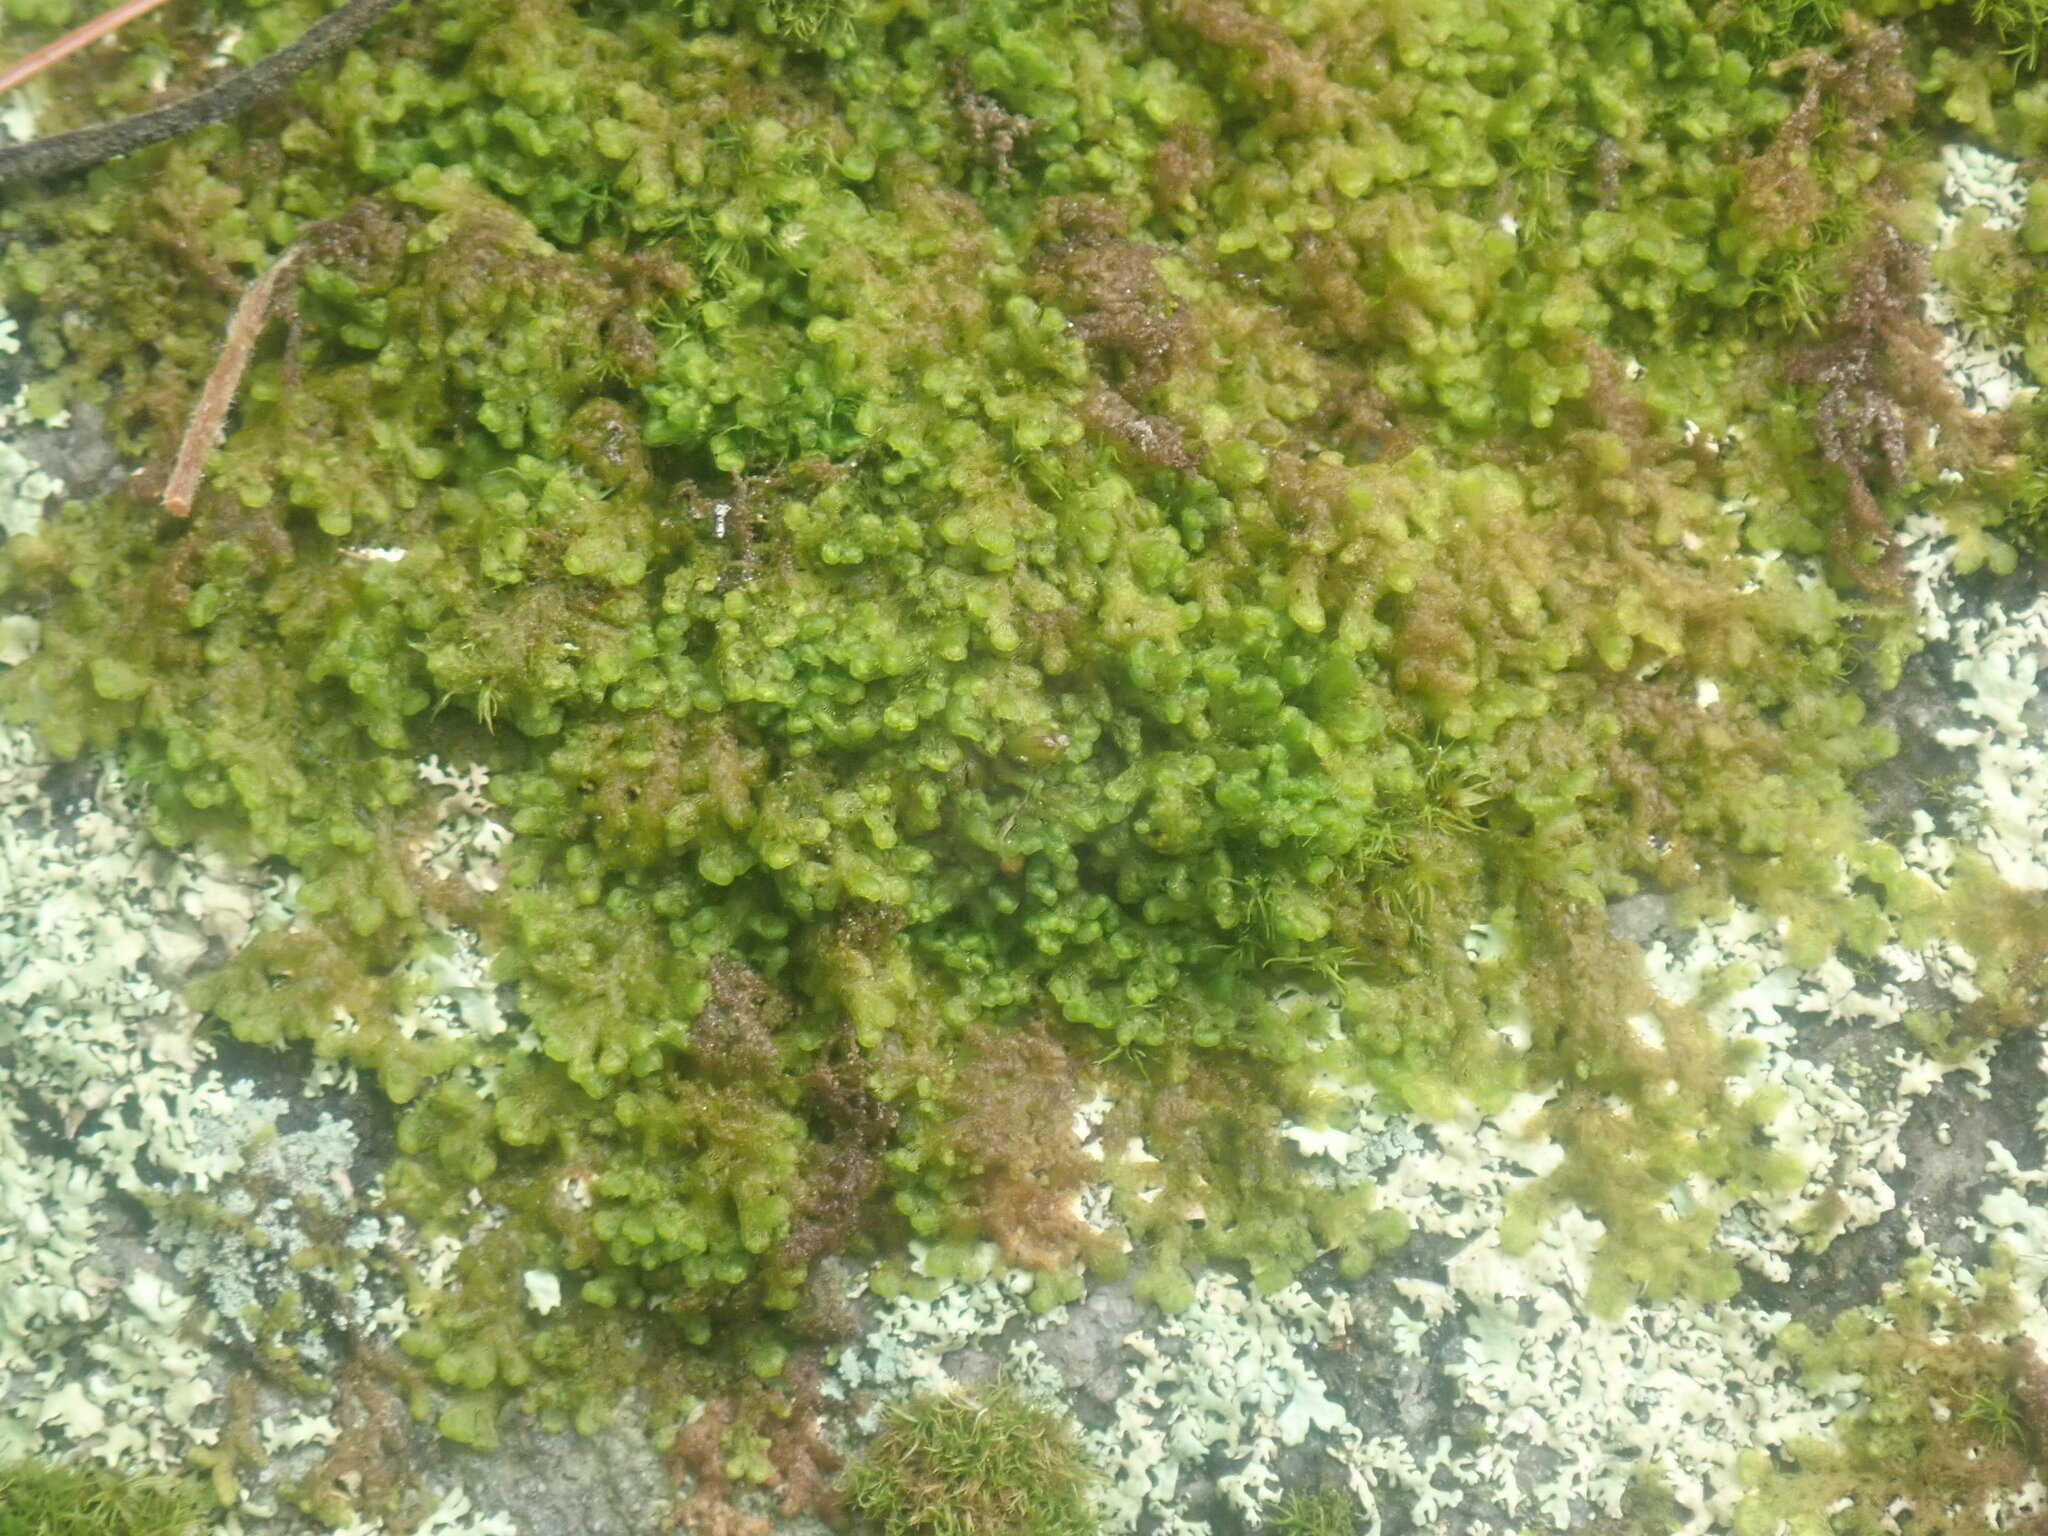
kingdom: Plantae
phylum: Marchantiophyta
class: Jungermanniopsida
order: Ptilidiales
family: Ptilidiaceae
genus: Ptilidium
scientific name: Ptilidium pulcherrimum
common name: Tree fringewort
